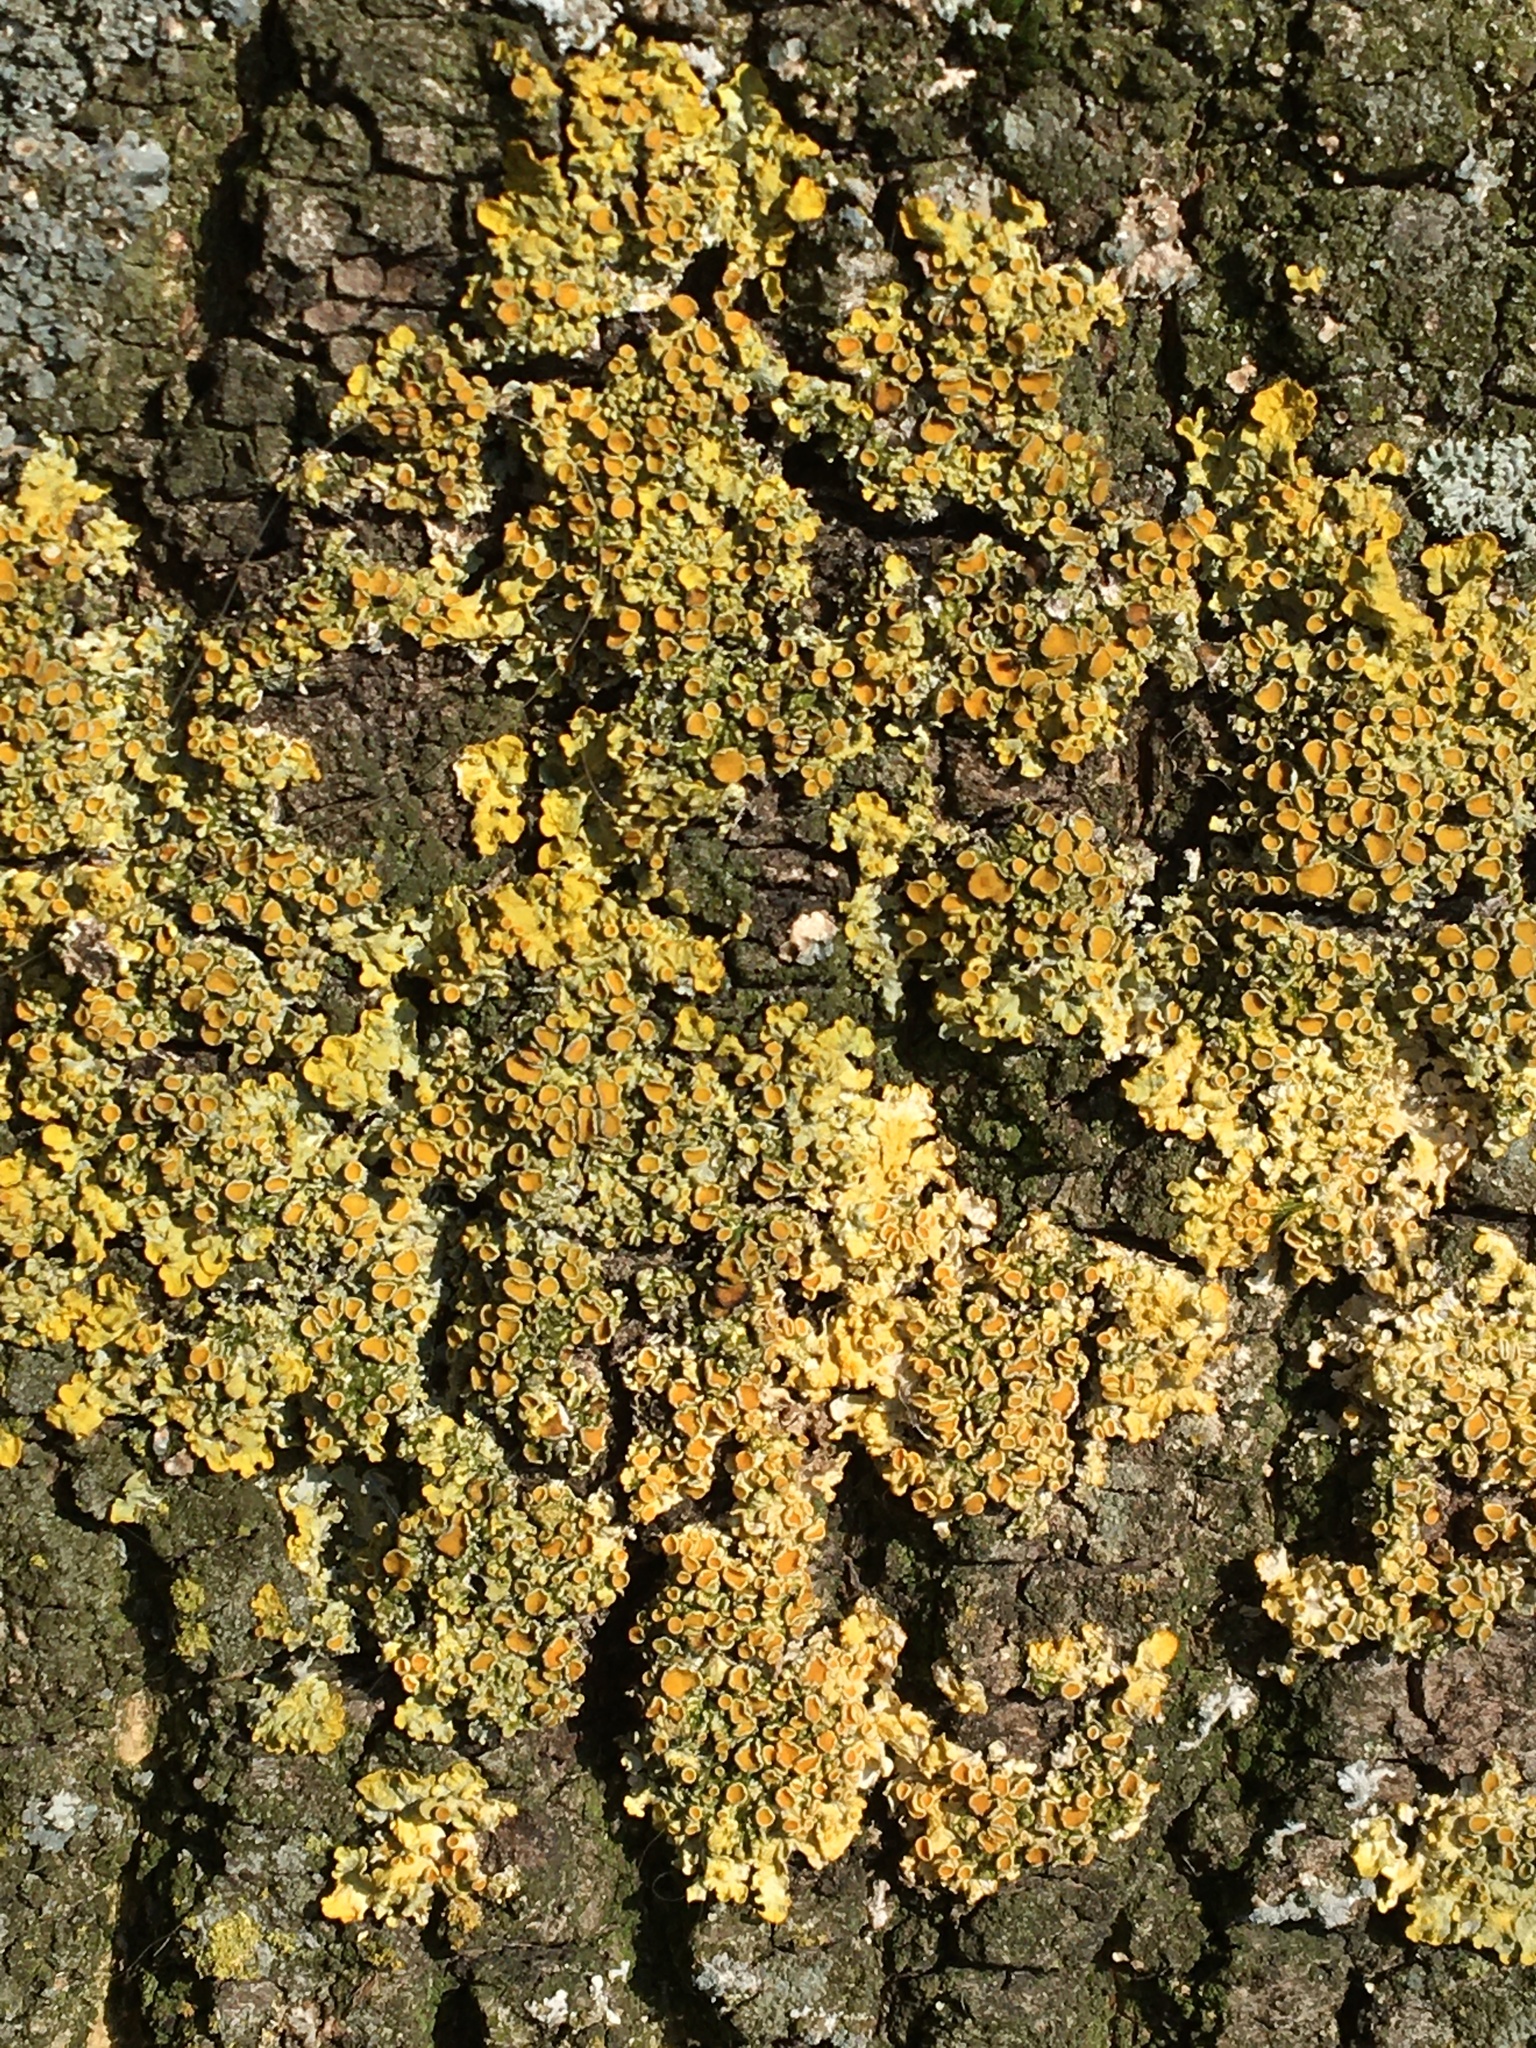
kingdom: Fungi
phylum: Ascomycota
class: Lecanoromycetes
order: Teloschistales
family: Teloschistaceae
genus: Xanthoria
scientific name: Xanthoria parietina
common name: Common orange lichen
